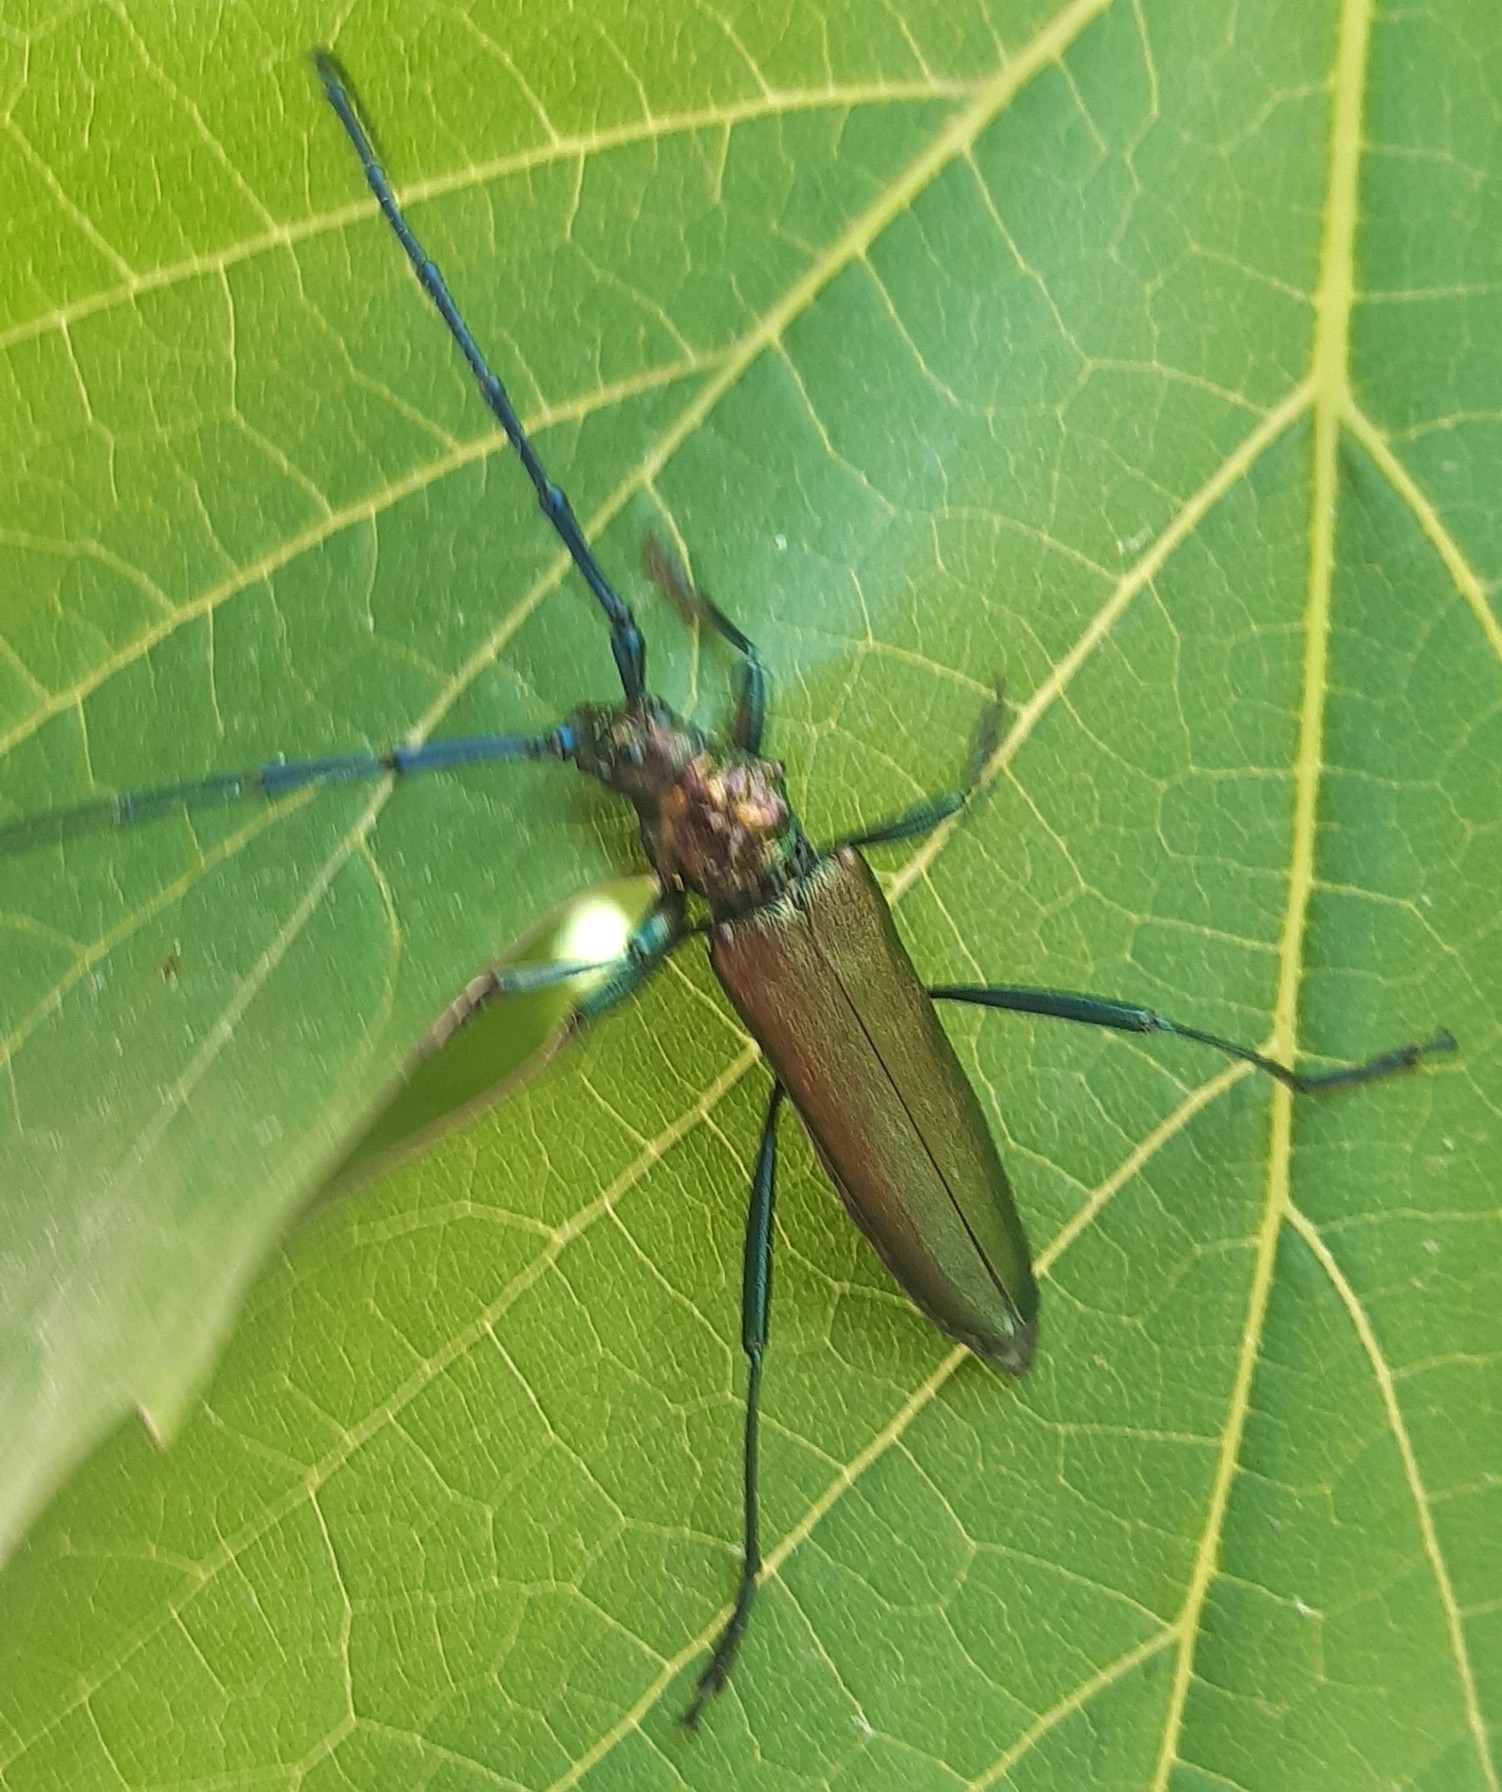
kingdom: Animalia
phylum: Arthropoda
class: Insecta
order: Coleoptera
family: Cerambycidae
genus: Aromia
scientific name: Aromia moschata
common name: Musk beetle
